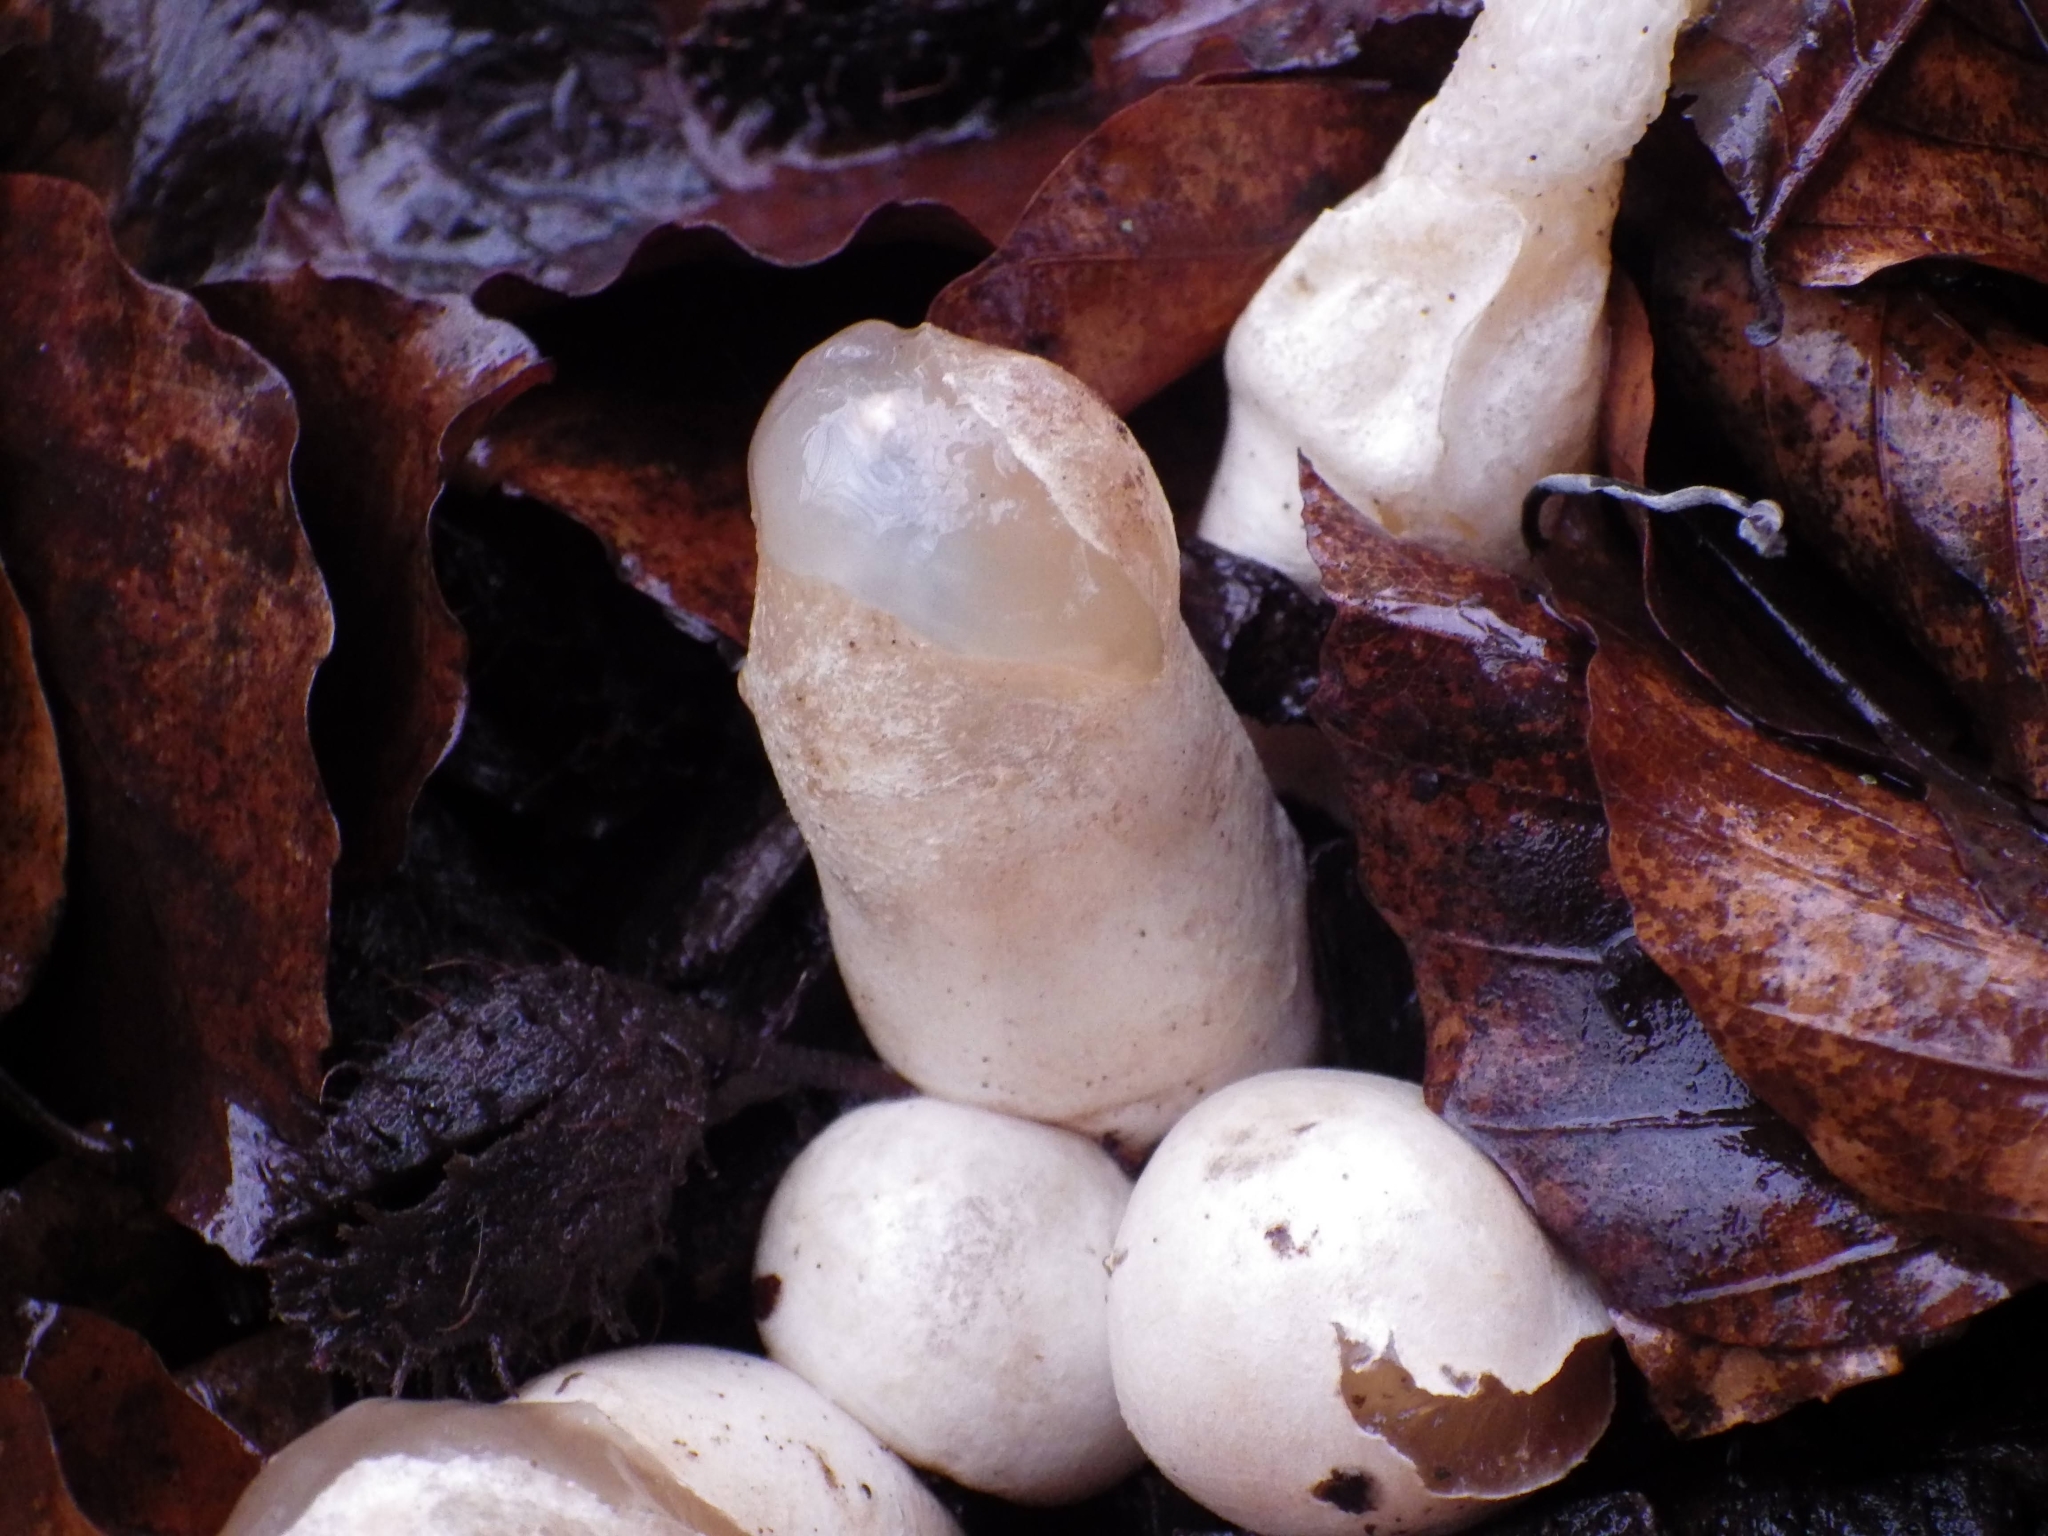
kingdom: Fungi
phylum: Basidiomycota
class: Agaricomycetes
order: Phallales
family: Phallaceae
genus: Mutinus
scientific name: Mutinus caninus
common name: Dog stinkhorn
